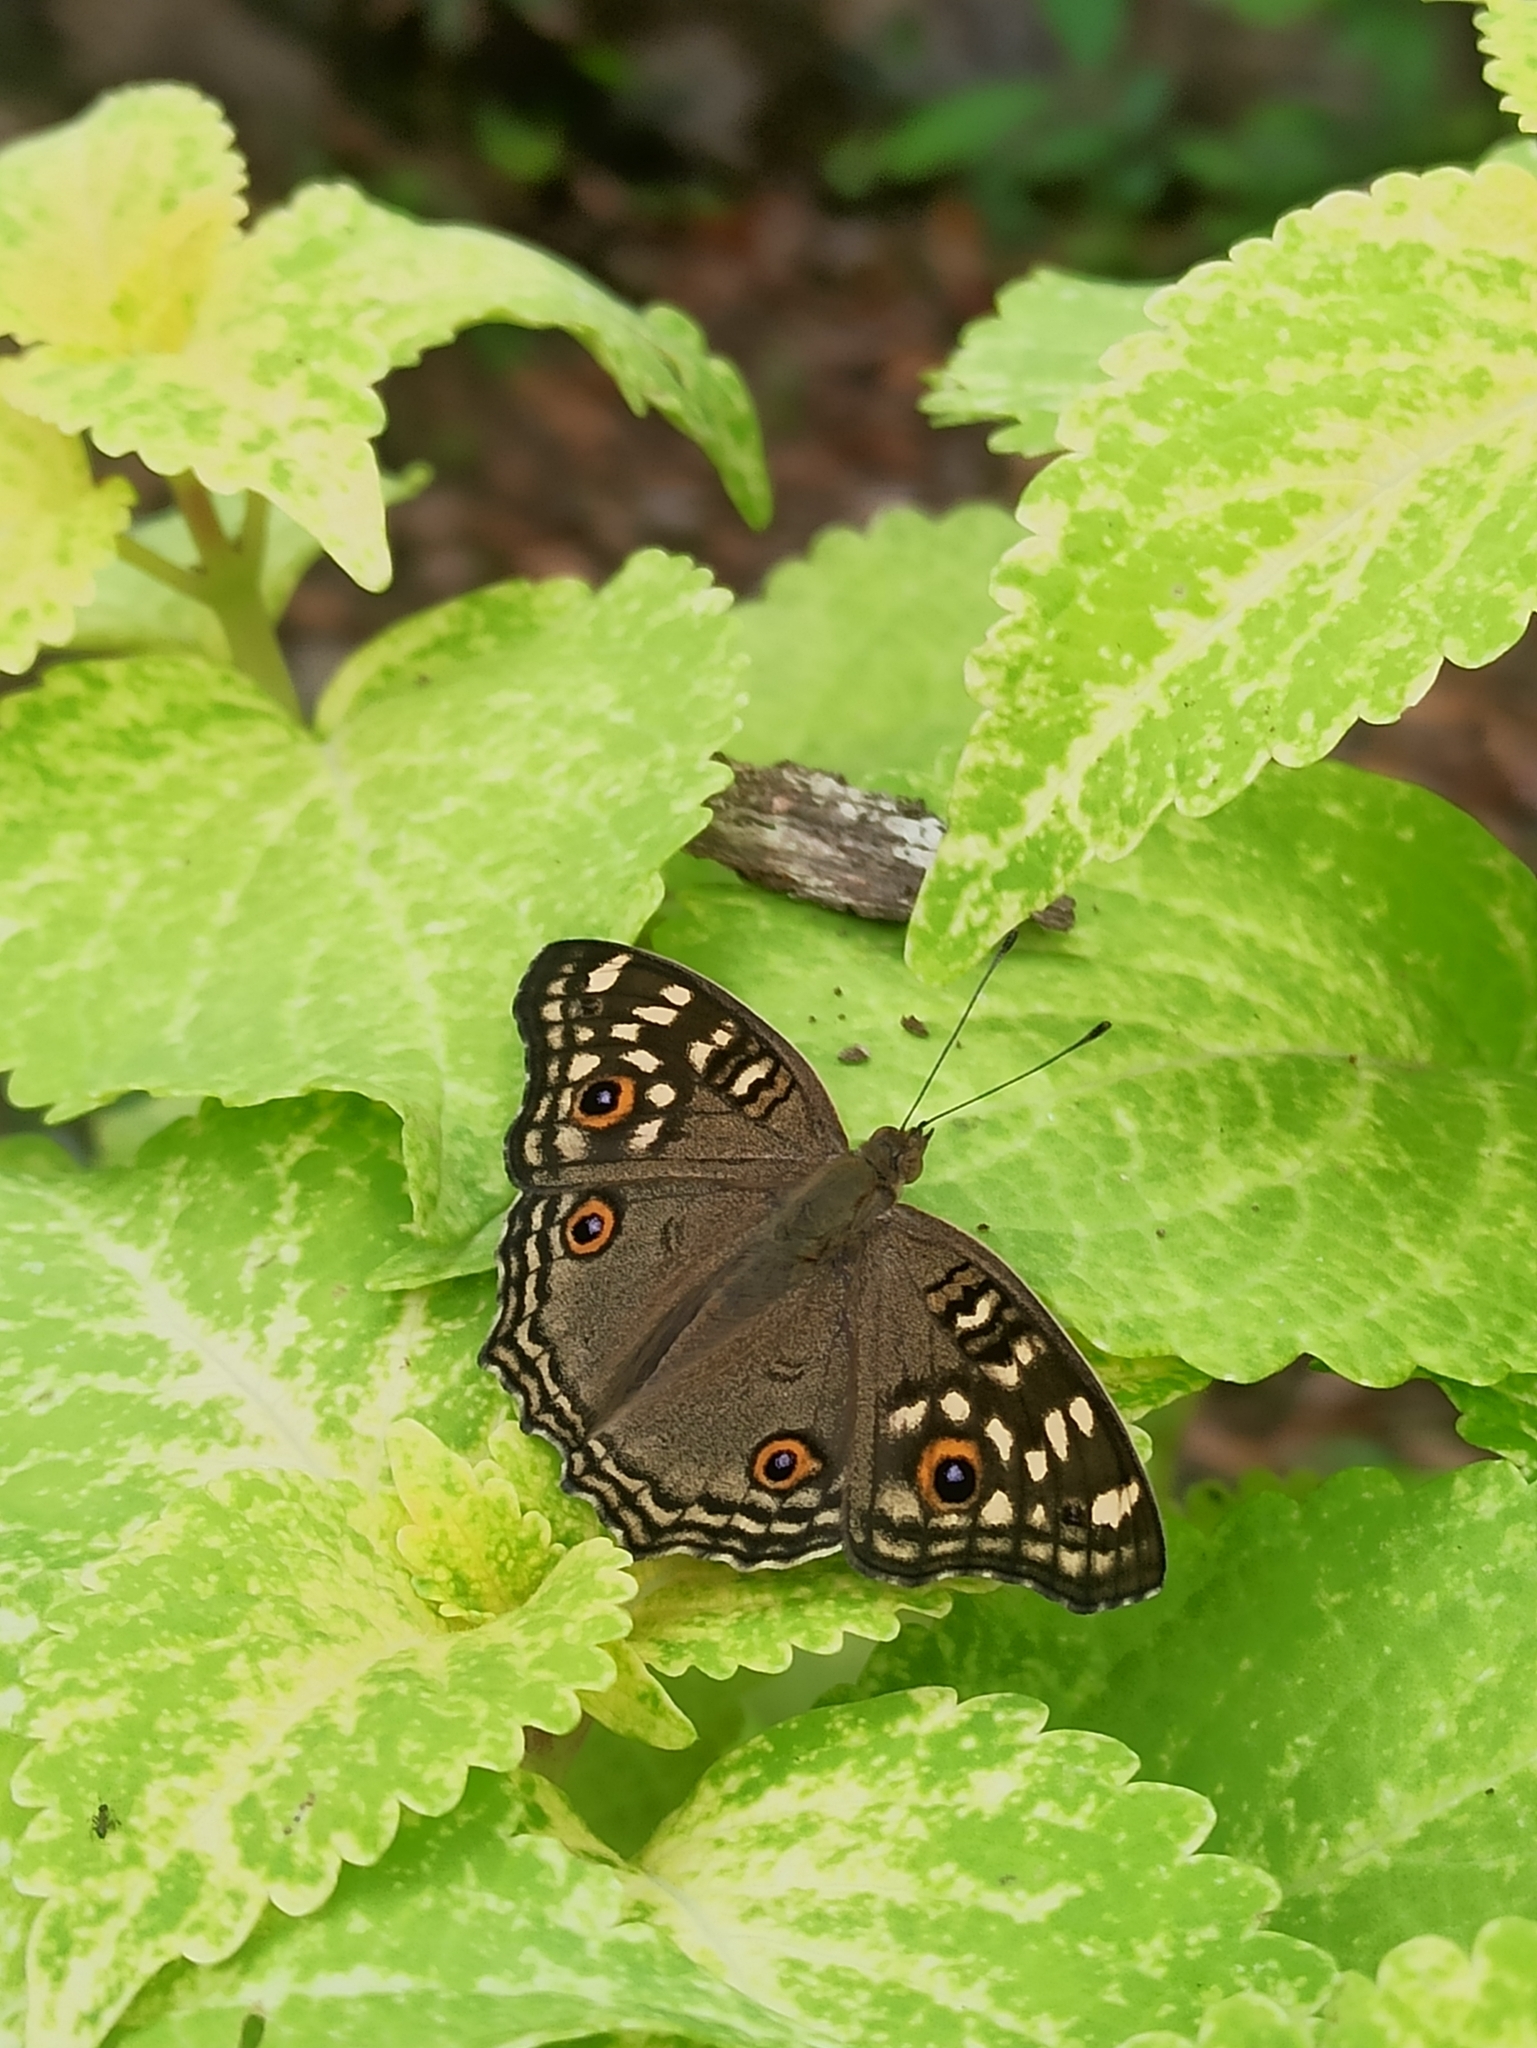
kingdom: Animalia
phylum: Arthropoda
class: Insecta
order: Lepidoptera
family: Nymphalidae
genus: Junonia
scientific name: Junonia lemonias
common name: Lemon pansy
